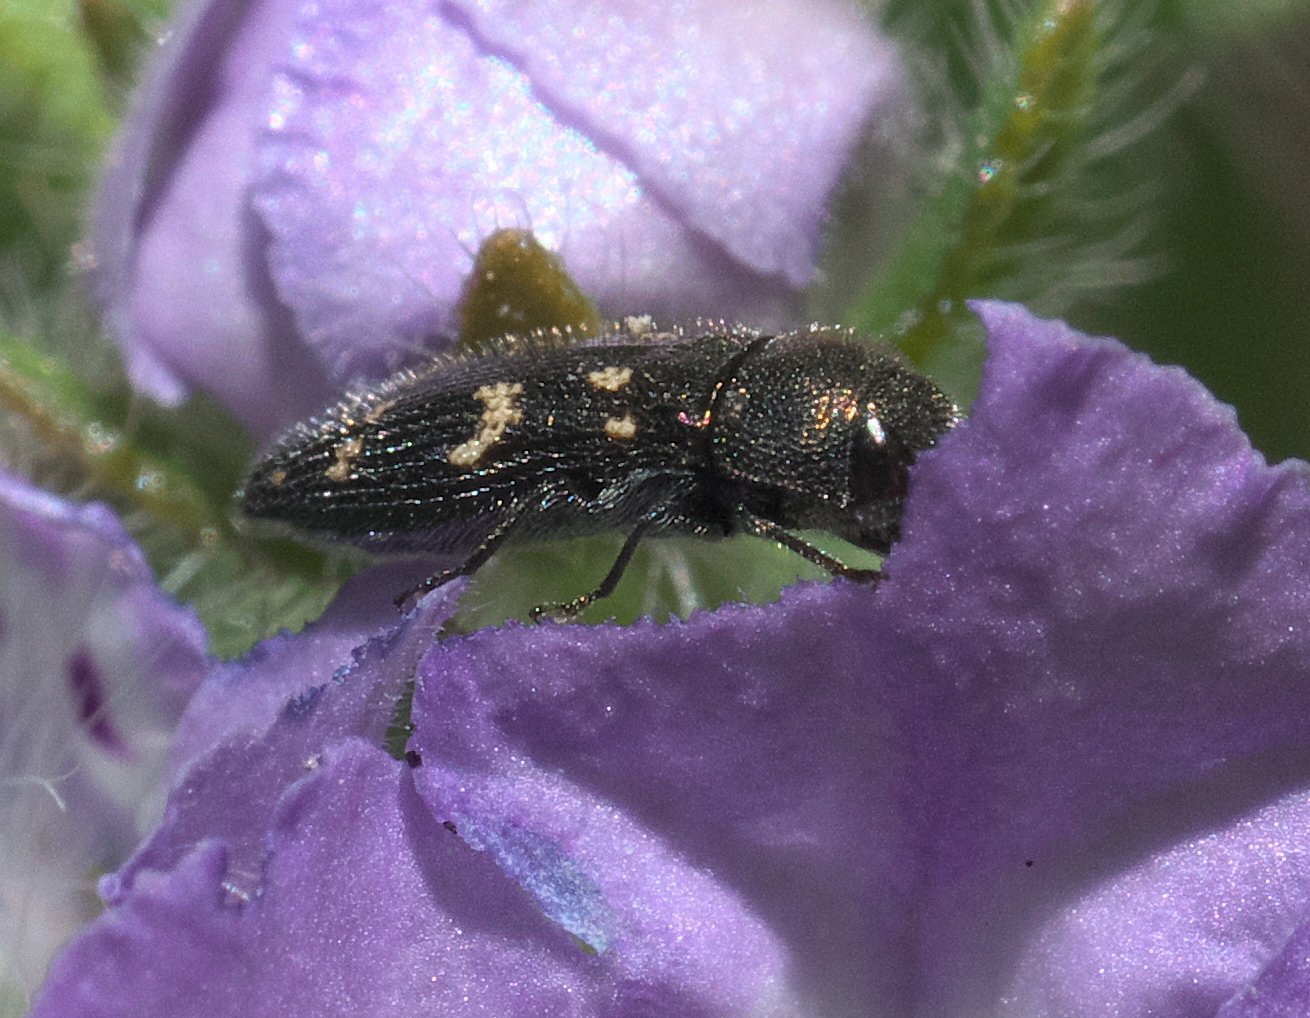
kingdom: Animalia
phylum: Arthropoda
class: Insecta
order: Coleoptera
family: Buprestidae
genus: Acmaeodera
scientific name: Acmaeodera tubulus
